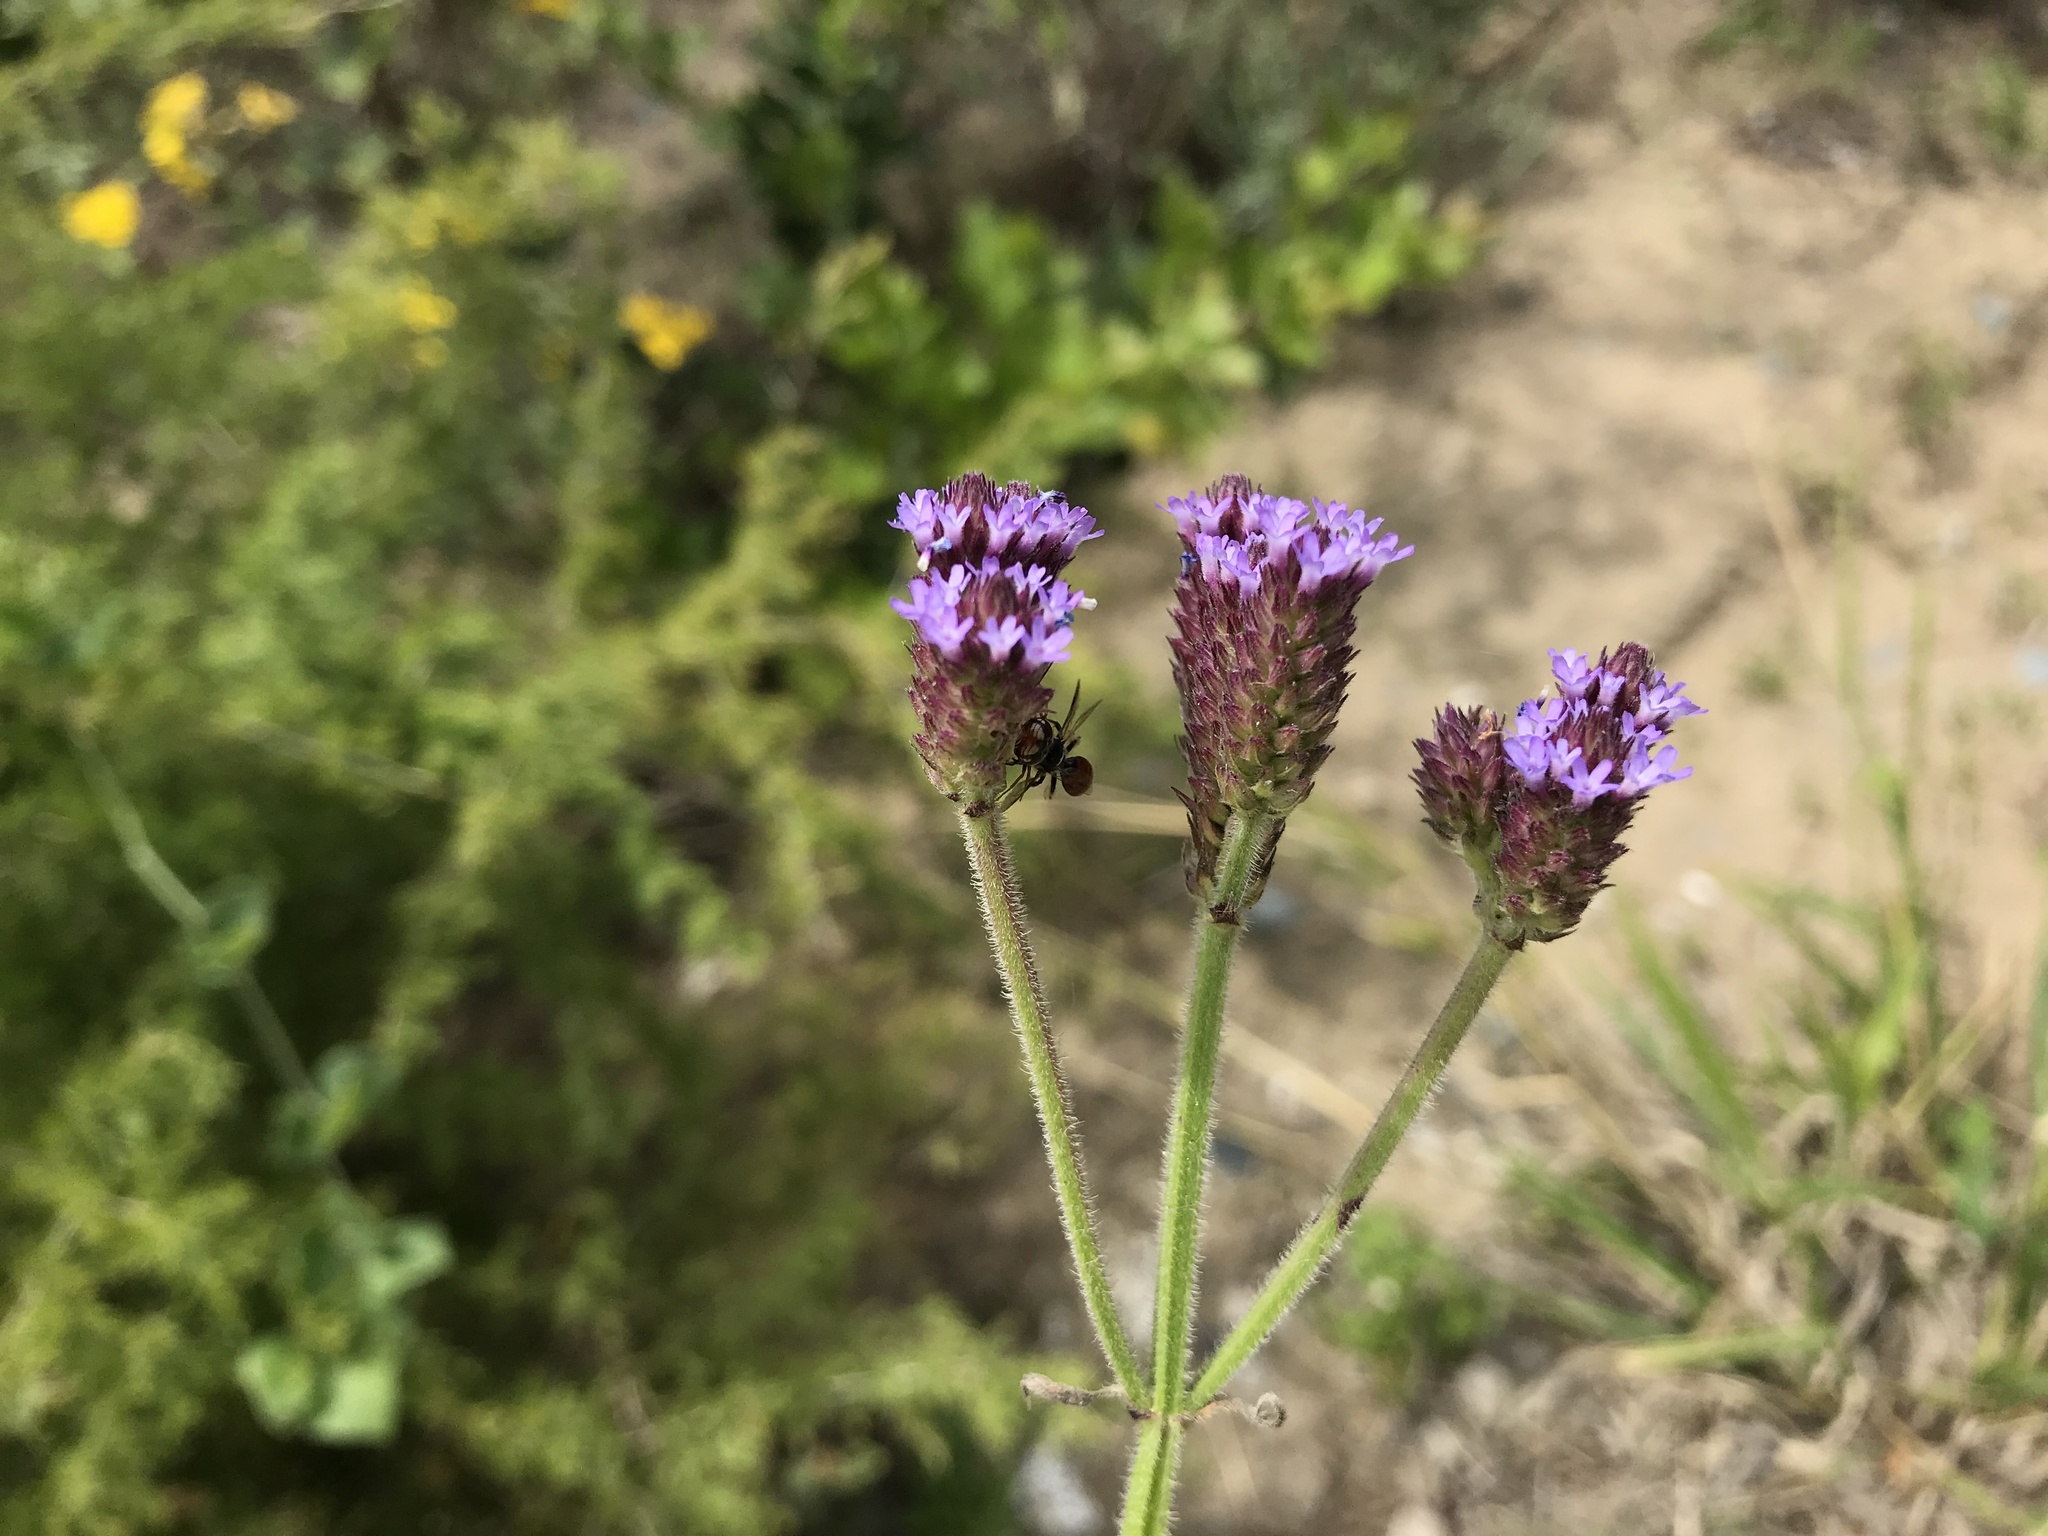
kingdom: Plantae
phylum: Tracheophyta
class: Magnoliopsida
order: Lamiales
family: Verbenaceae
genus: Verbena
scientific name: Verbena bonariensis
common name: Purpletop vervain
